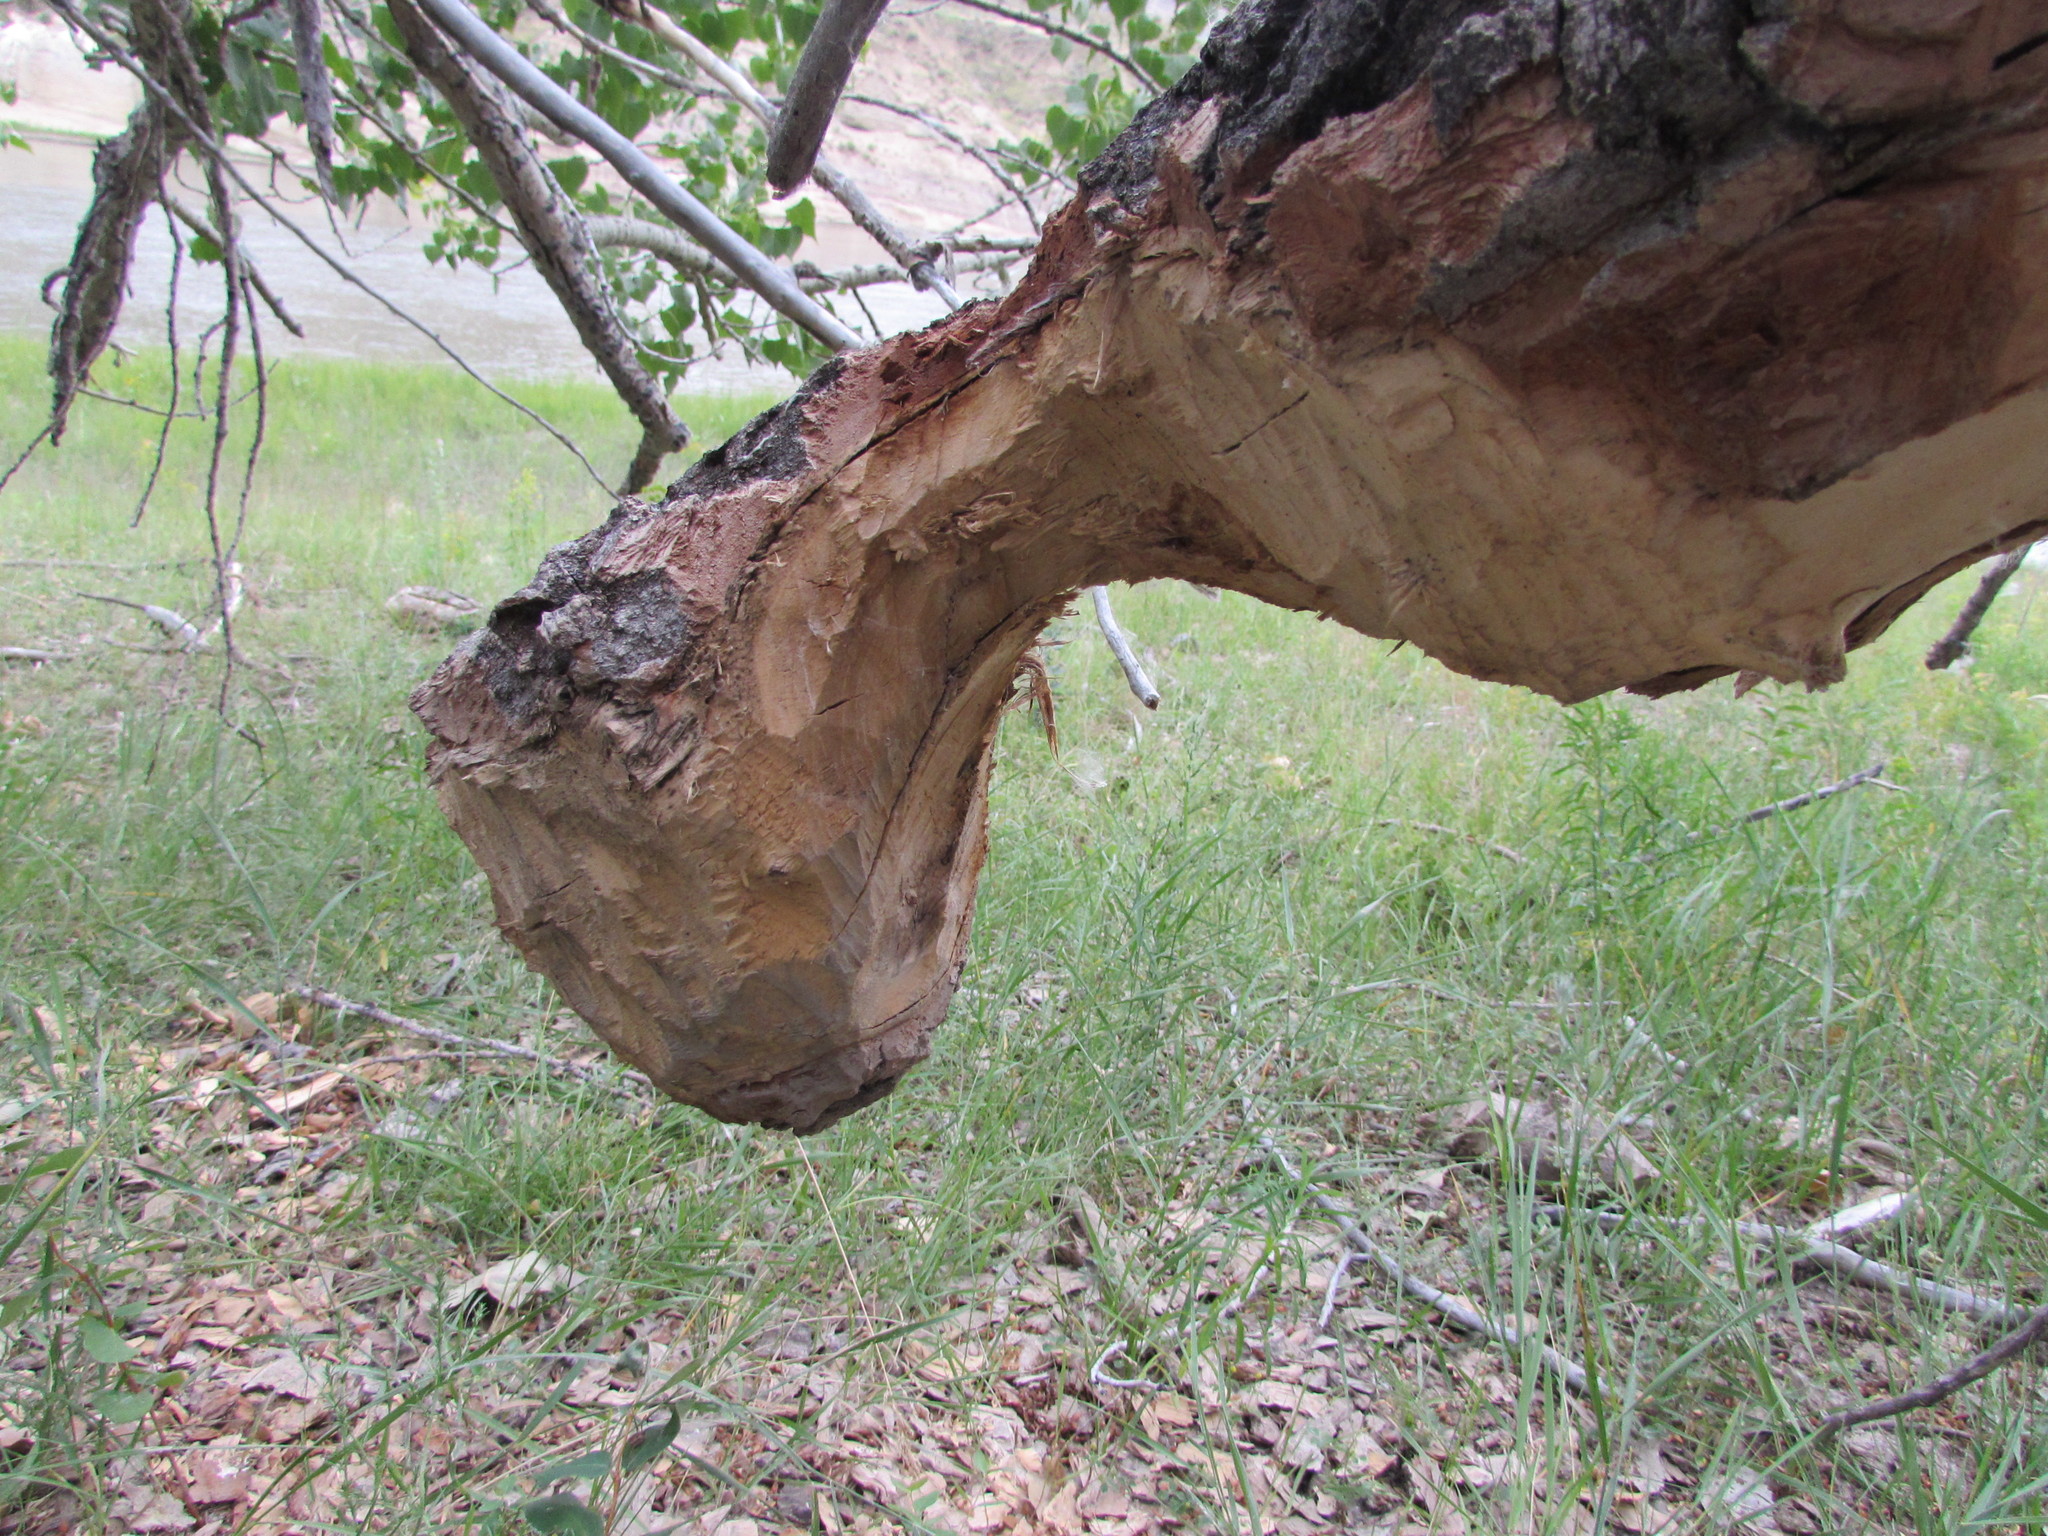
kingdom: Animalia
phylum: Chordata
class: Mammalia
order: Rodentia
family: Castoridae
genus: Castor
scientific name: Castor canadensis
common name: American beaver
